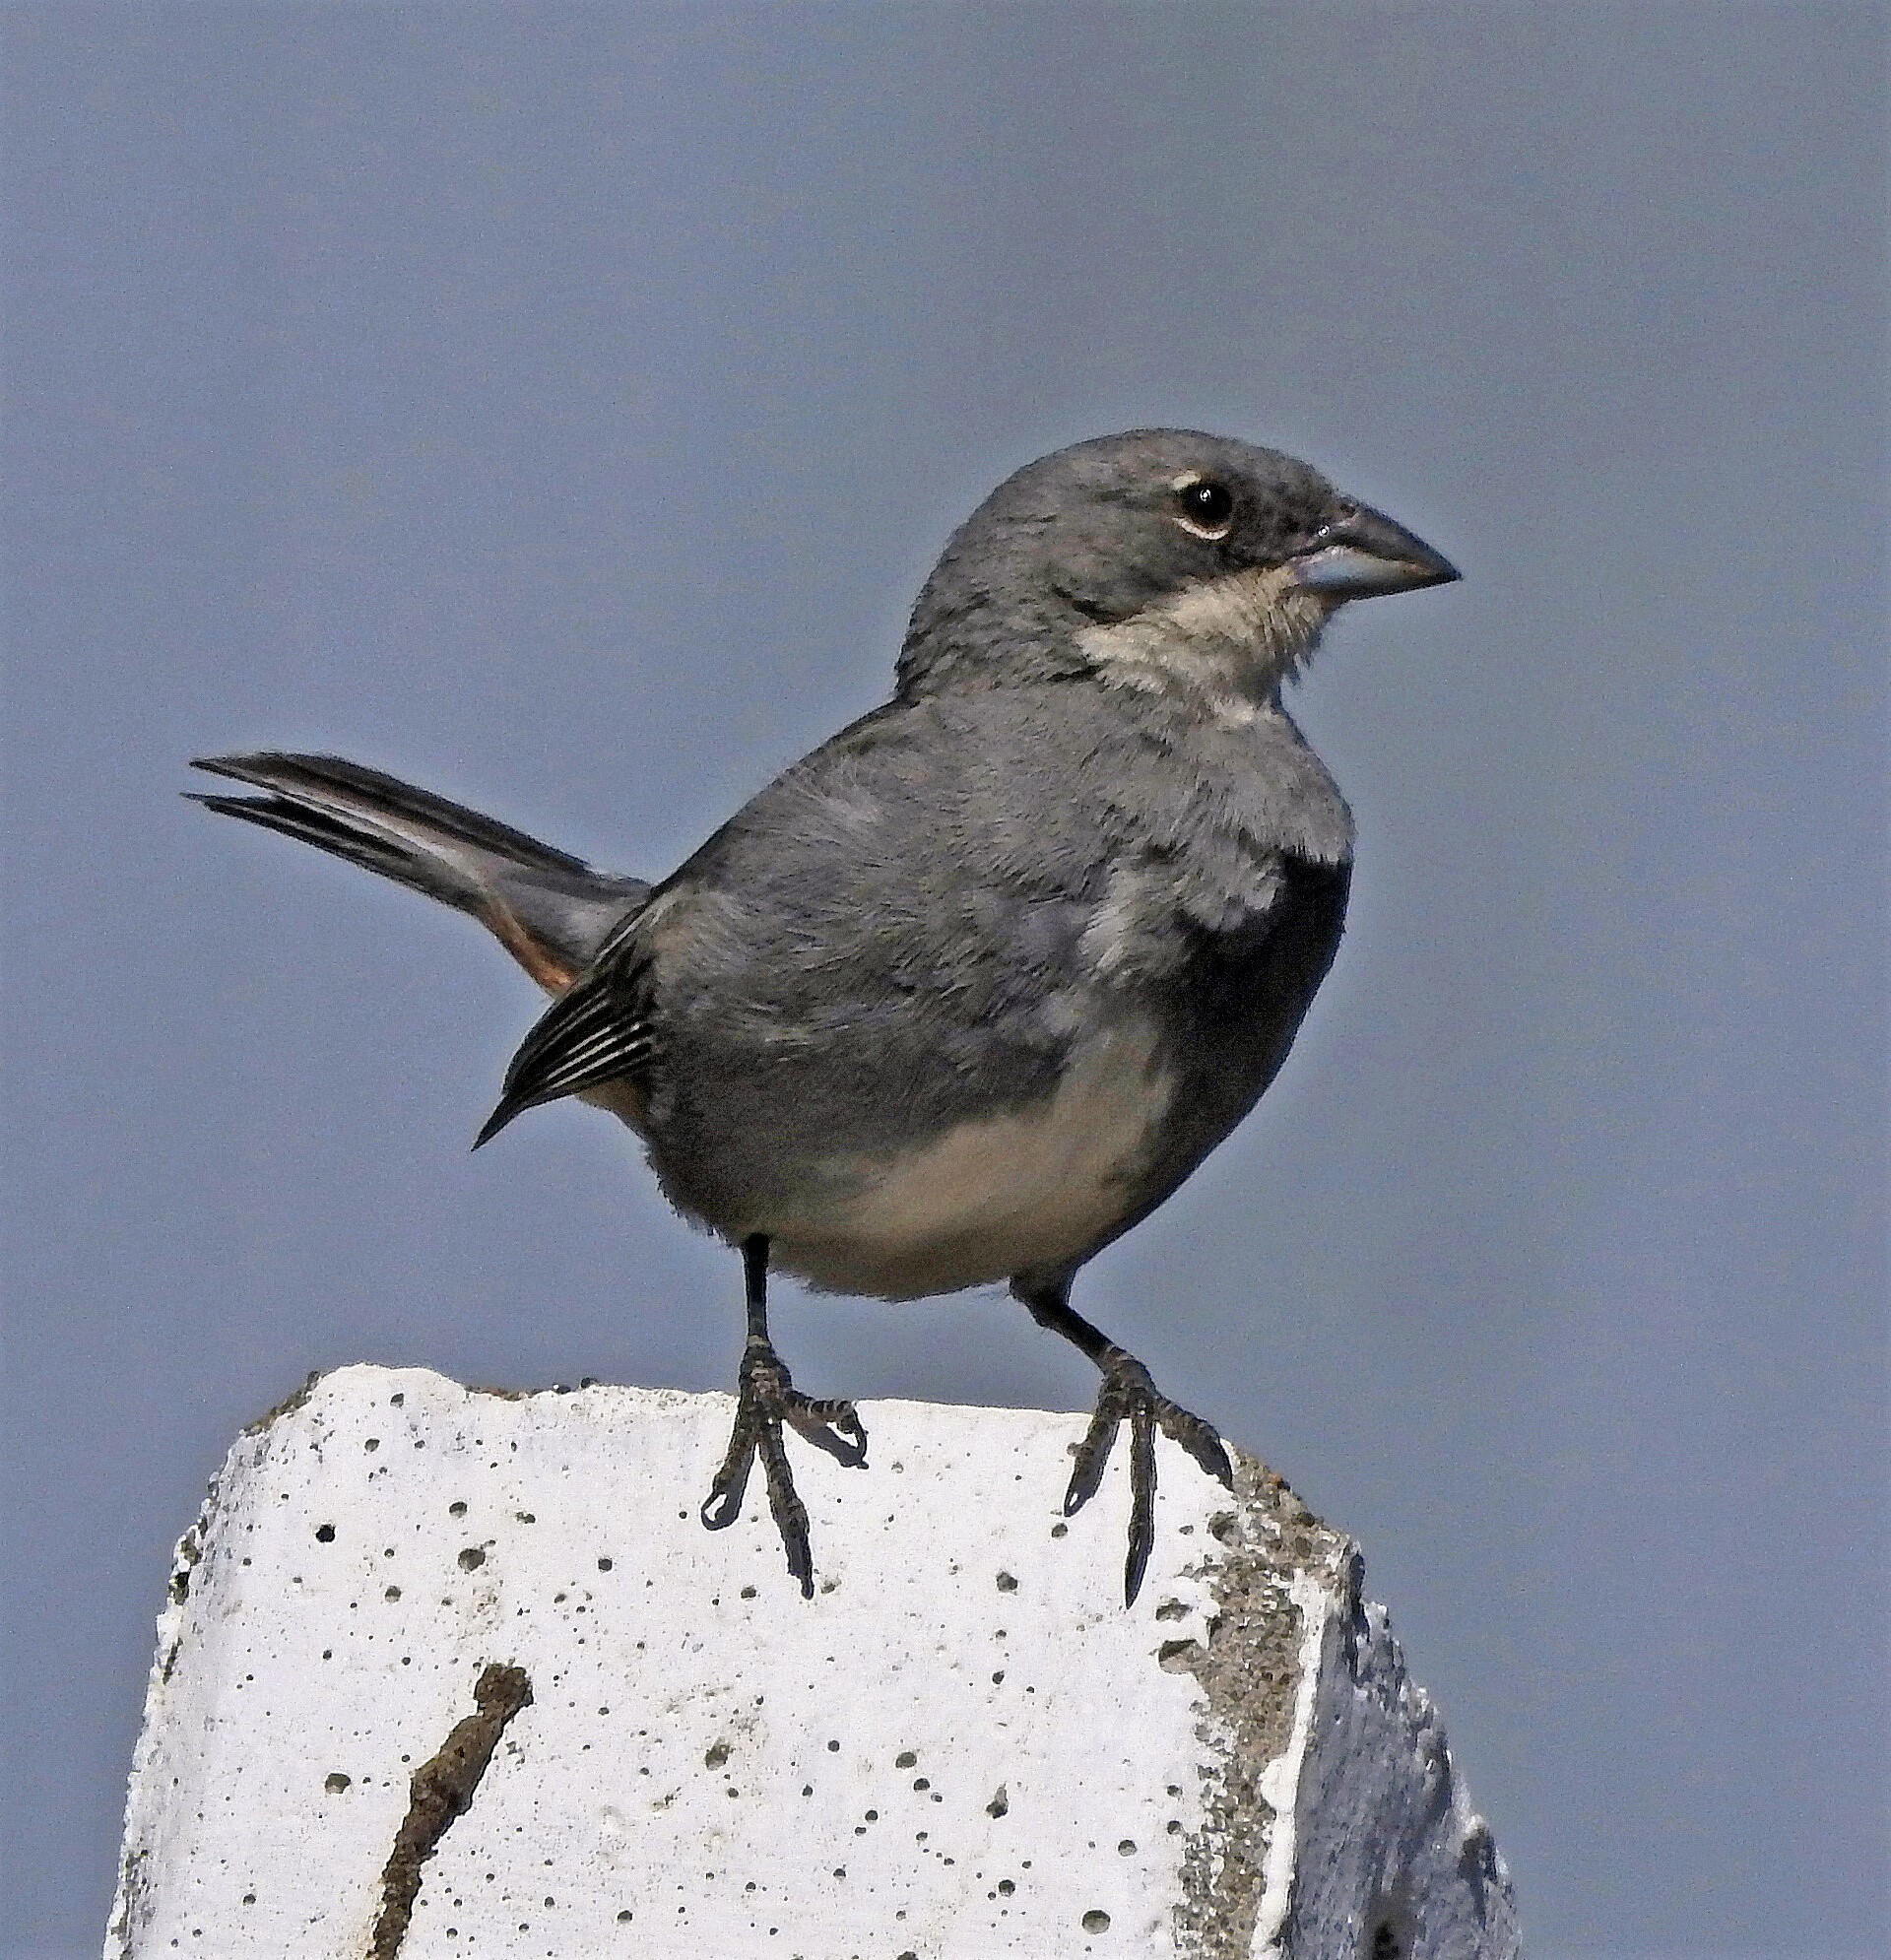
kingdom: Animalia
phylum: Chordata
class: Aves
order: Passeriformes
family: Thraupidae
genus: Diuca
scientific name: Diuca diuca
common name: Common diuca finch
